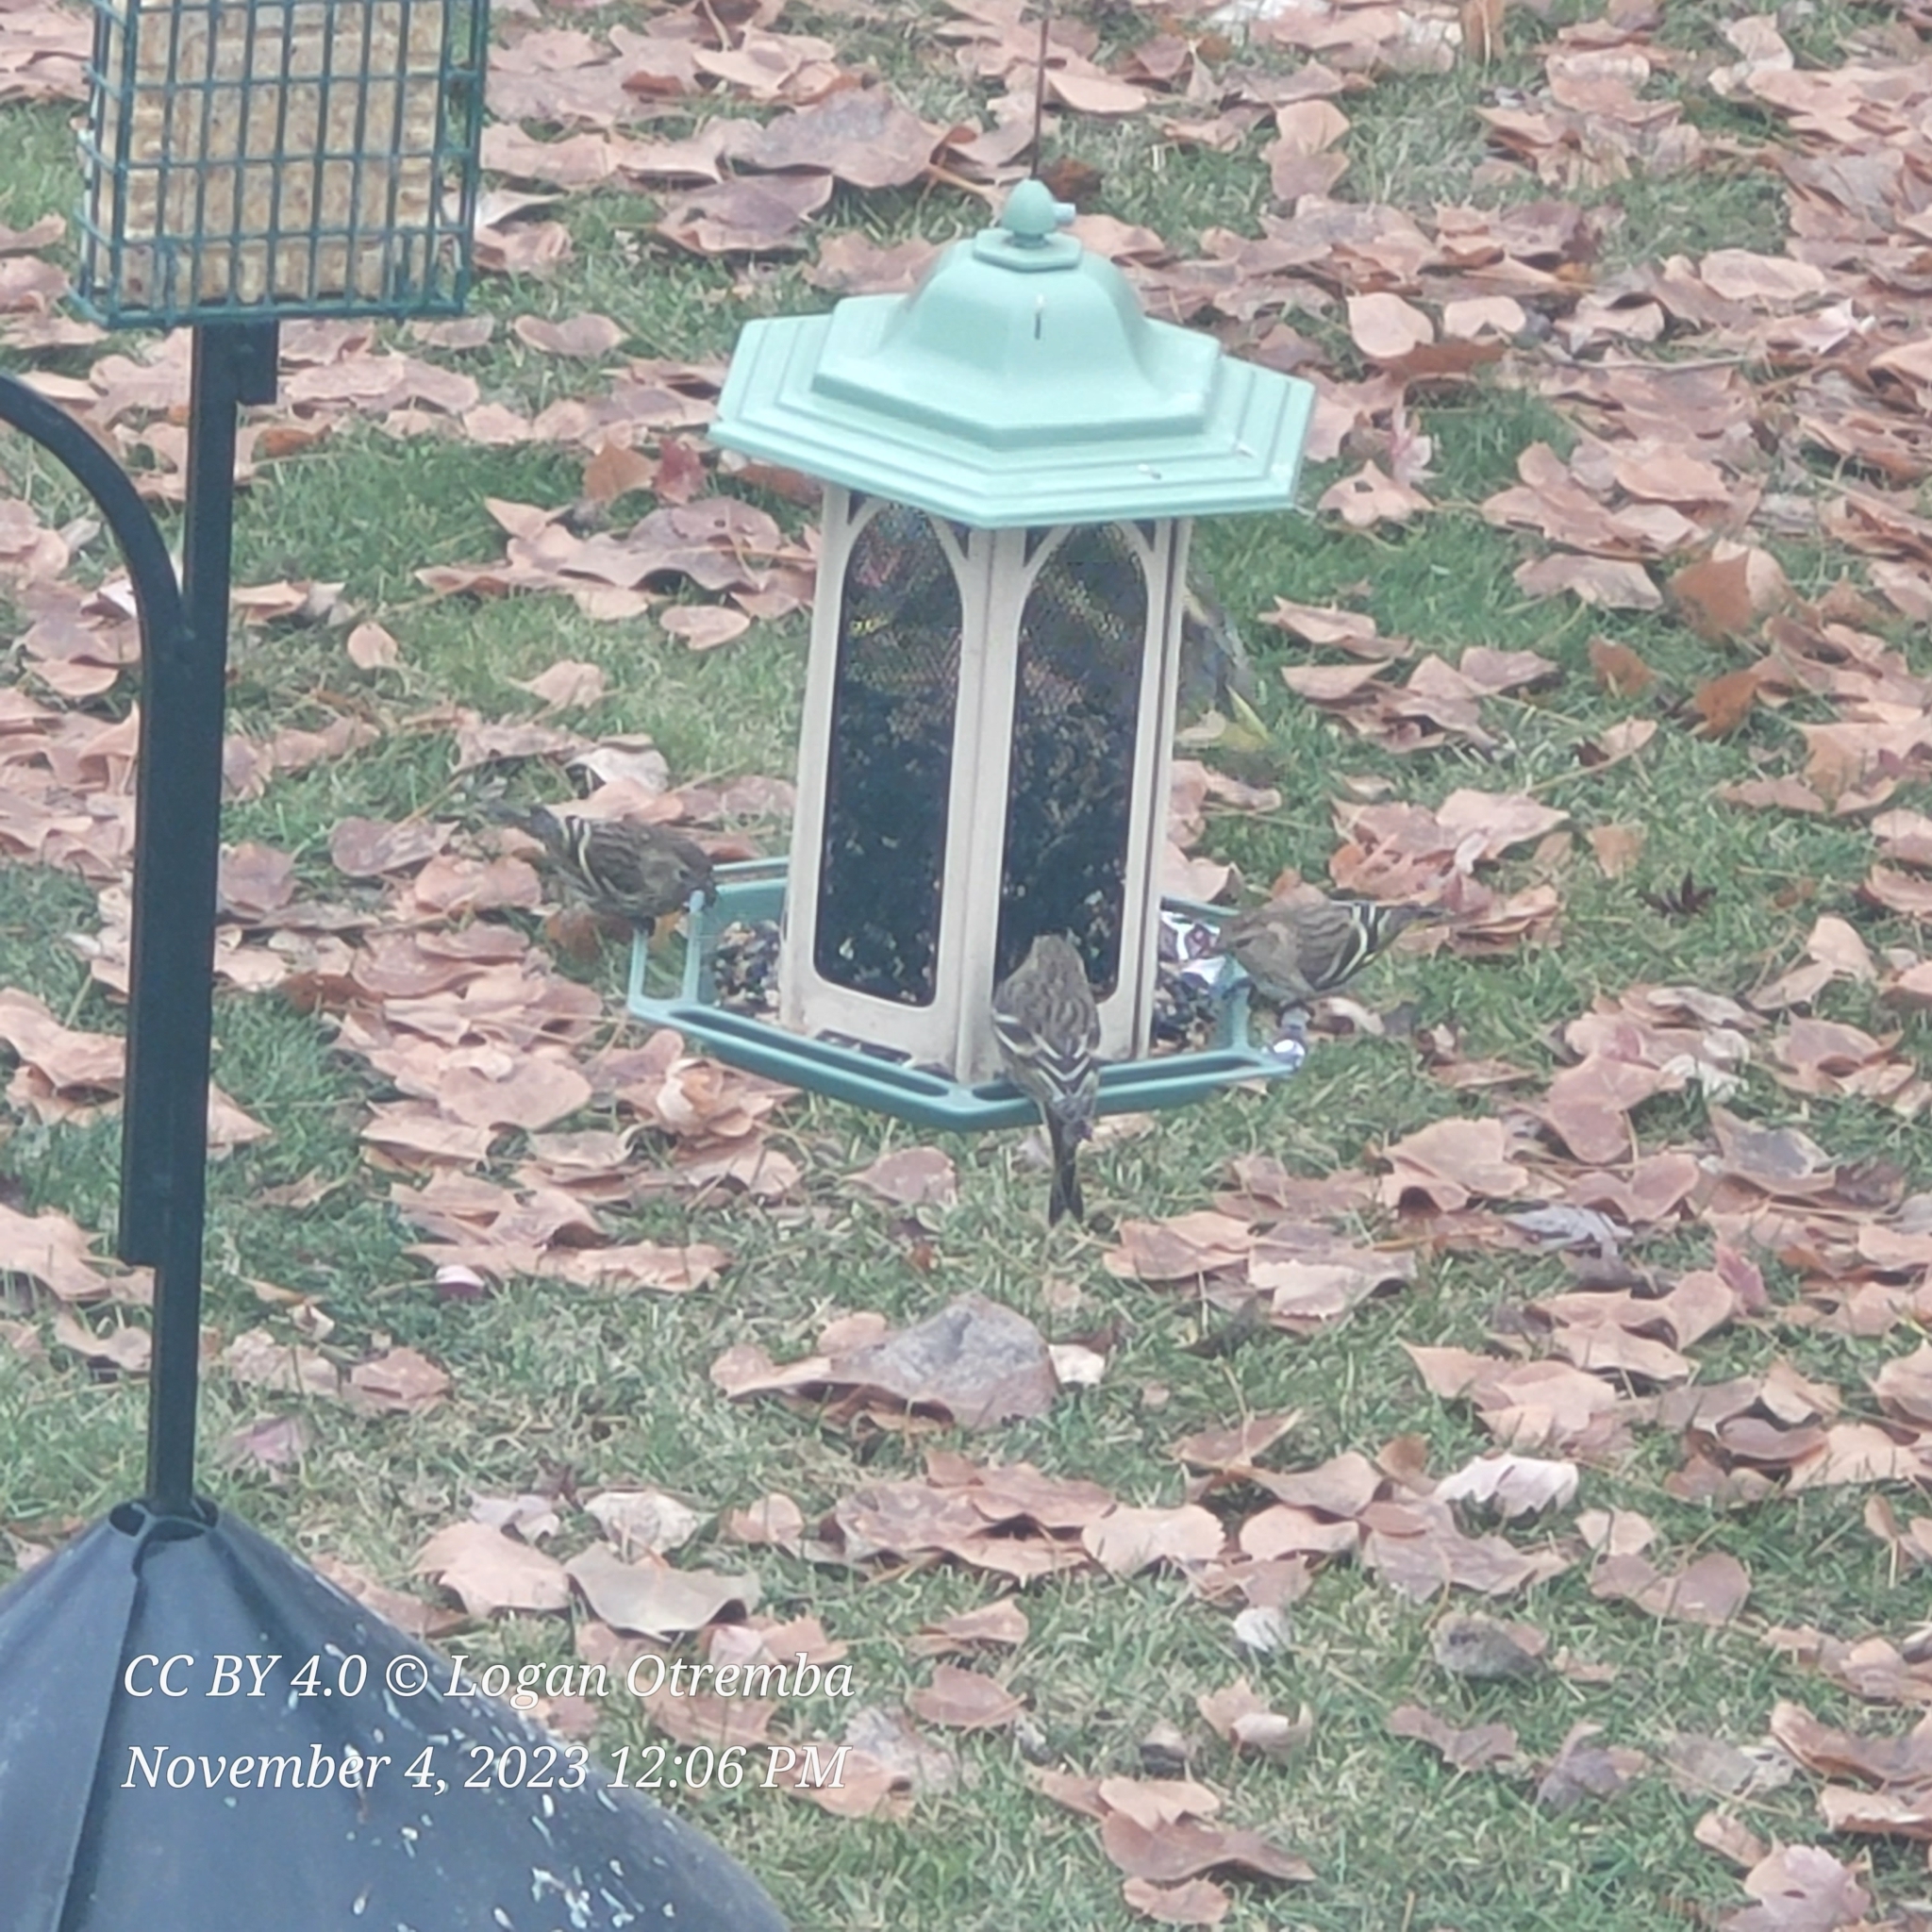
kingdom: Animalia
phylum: Chordata
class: Aves
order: Passeriformes
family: Fringillidae
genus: Spinus
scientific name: Spinus pinus
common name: Pine siskin
